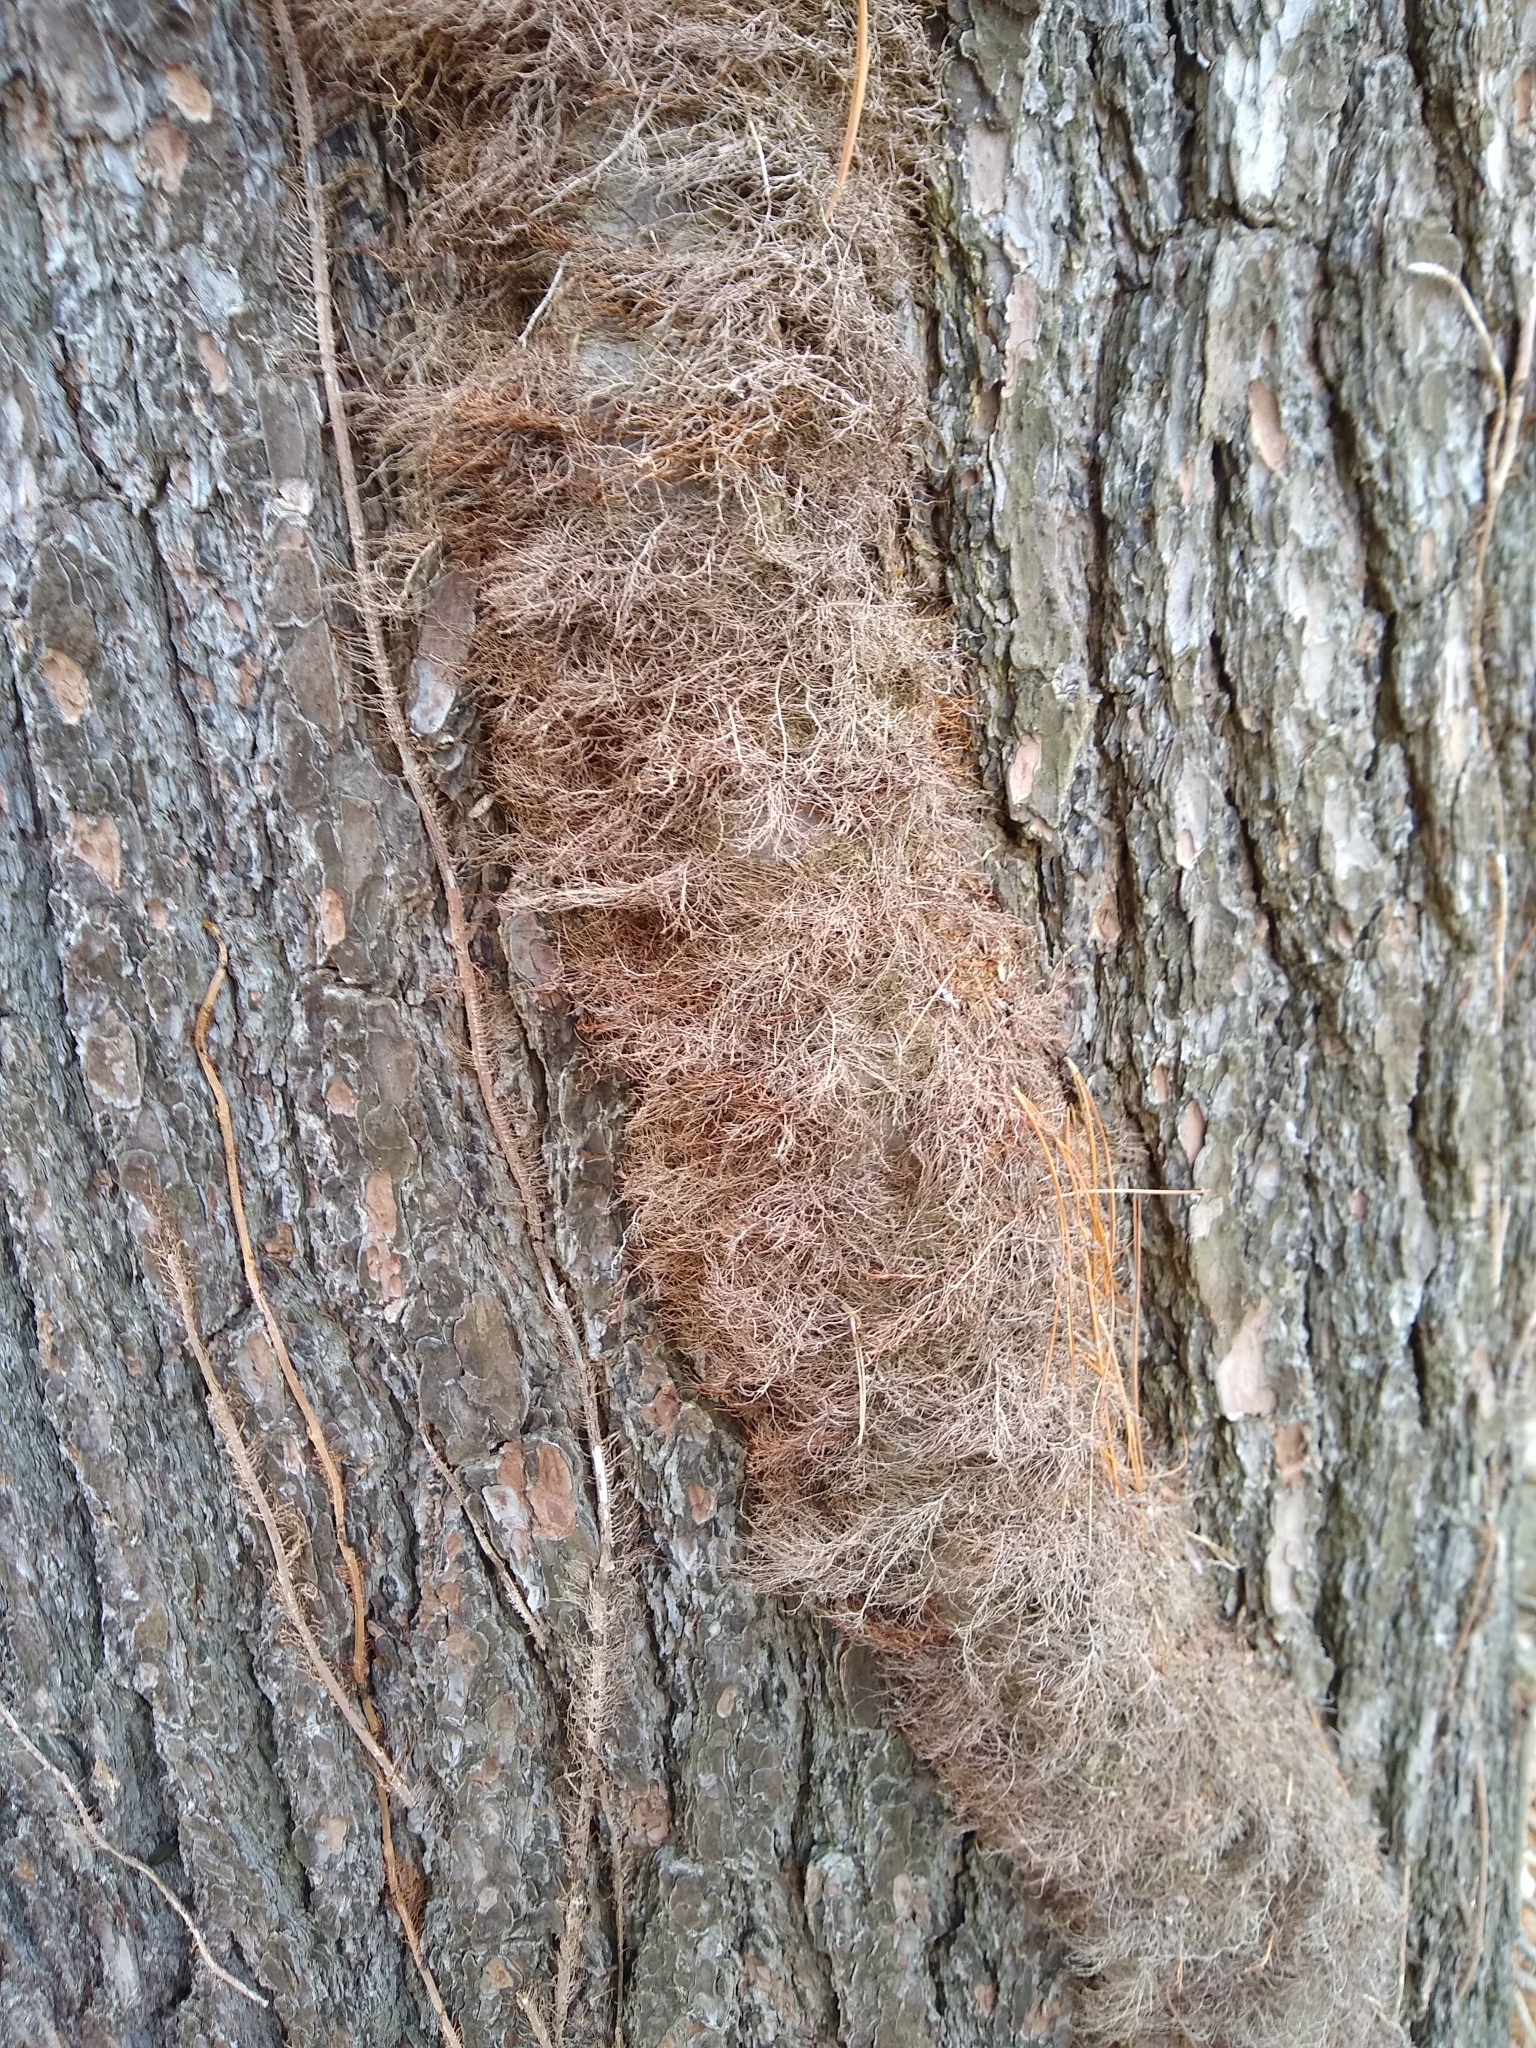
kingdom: Plantae
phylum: Tracheophyta
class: Magnoliopsida
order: Sapindales
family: Anacardiaceae
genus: Toxicodendron
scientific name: Toxicodendron radicans
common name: Poison ivy
